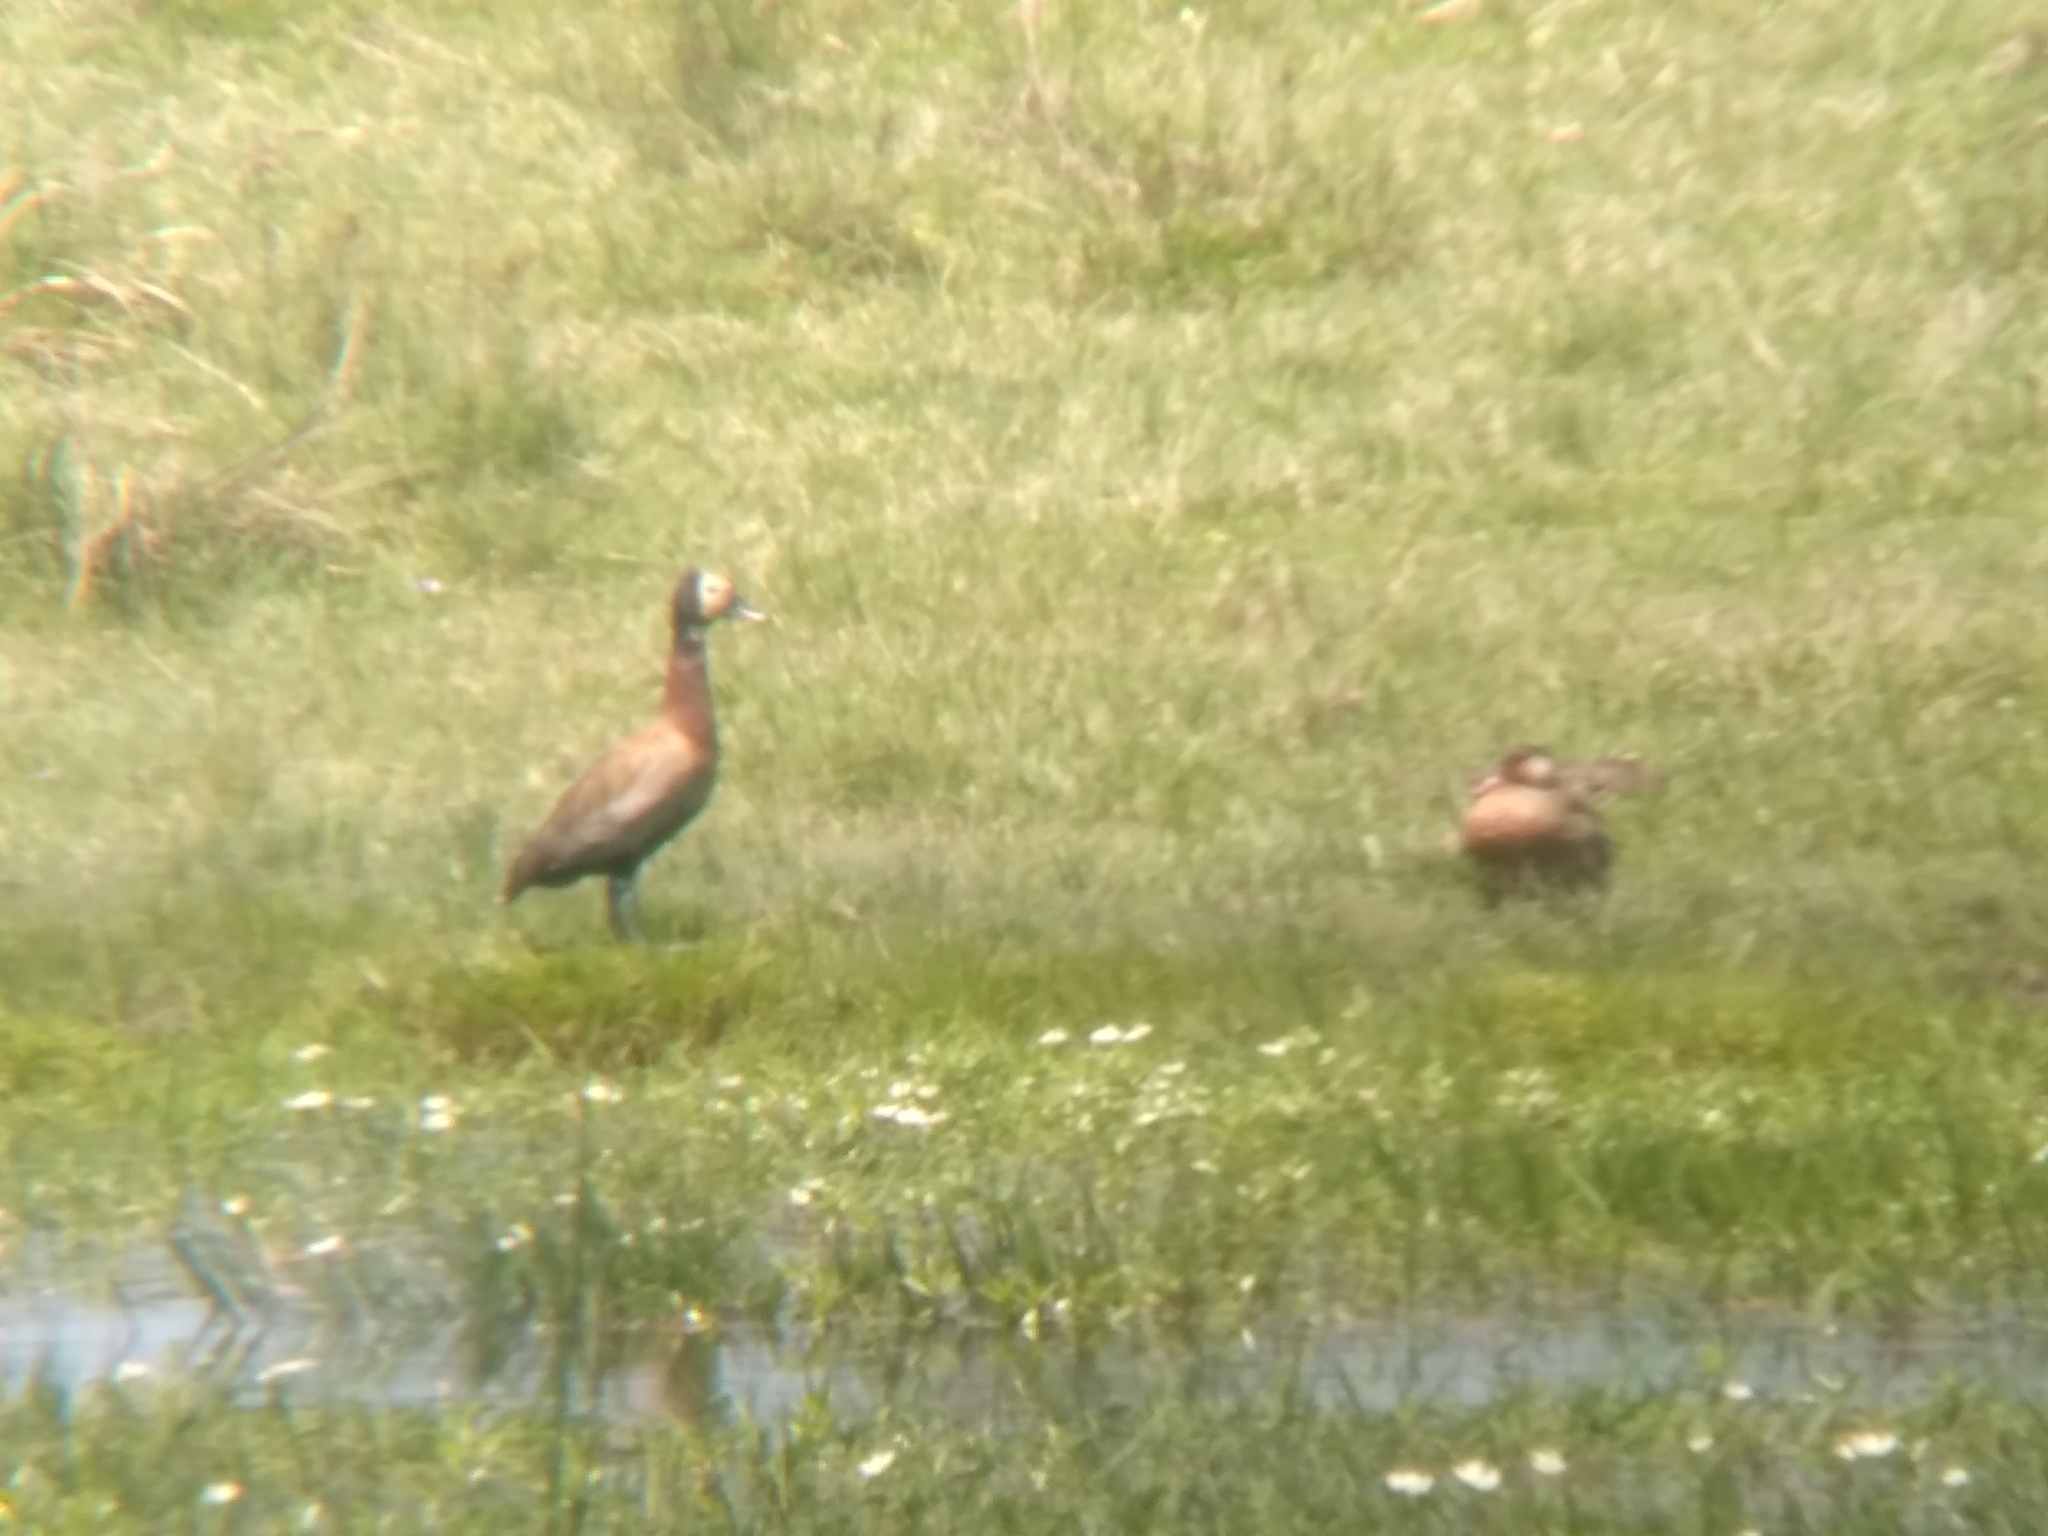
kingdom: Animalia
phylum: Chordata
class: Aves
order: Anseriformes
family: Anatidae
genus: Dendrocygna
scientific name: Dendrocygna viduata
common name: White-faced whistling duck
